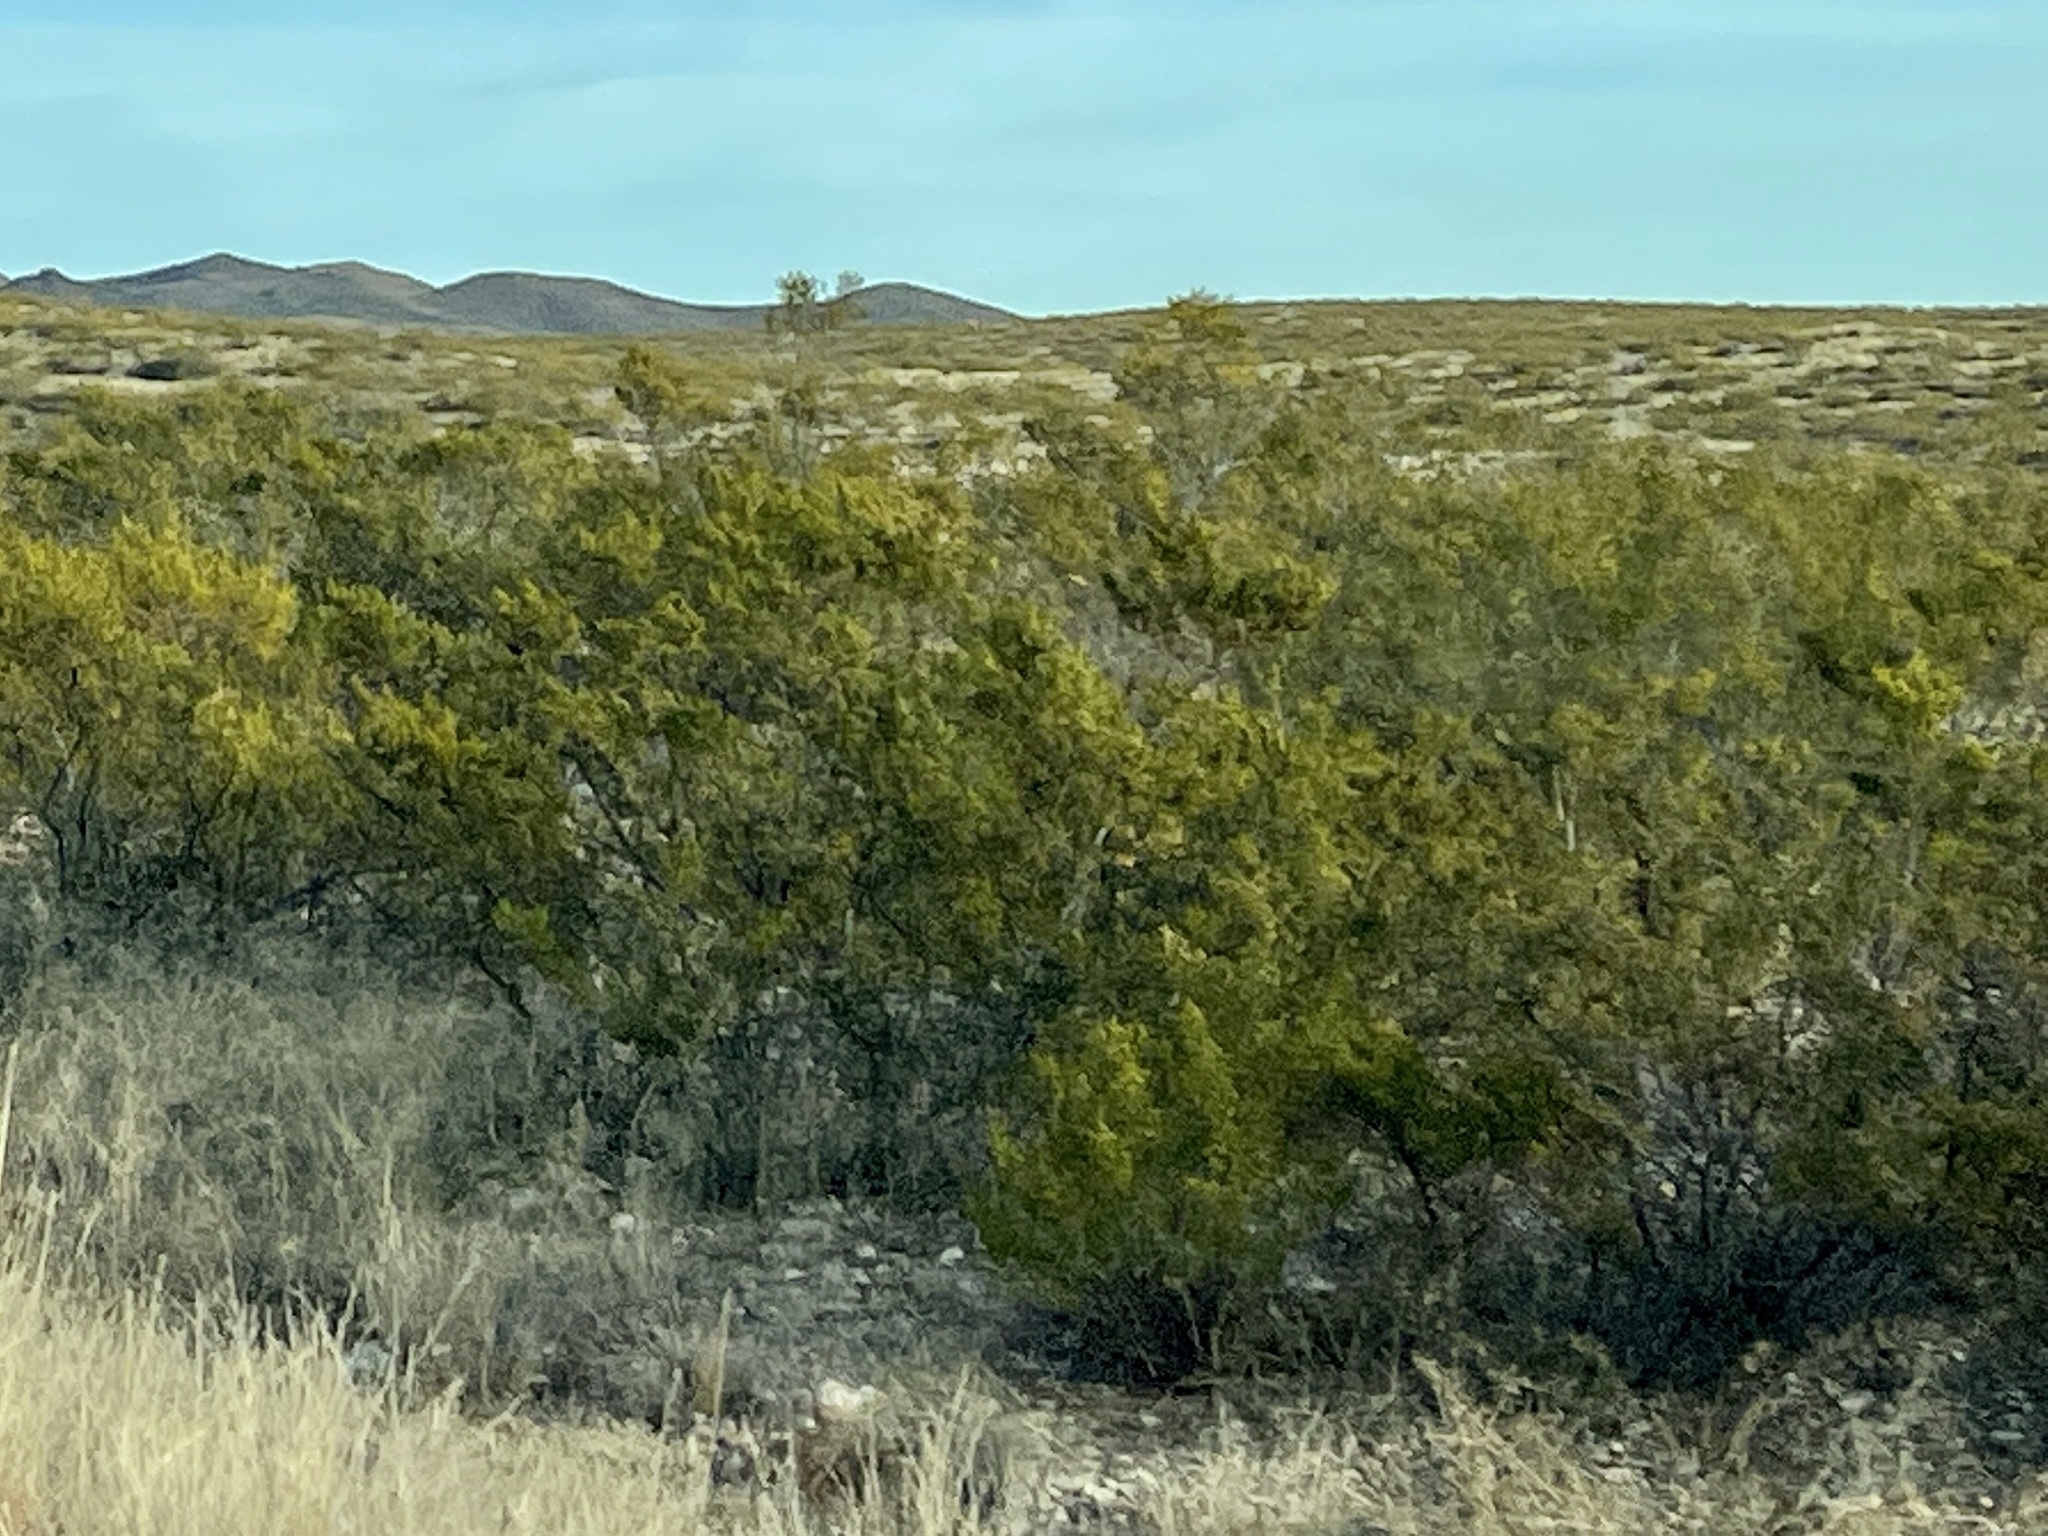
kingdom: Plantae
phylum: Tracheophyta
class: Magnoliopsida
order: Zygophyllales
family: Zygophyllaceae
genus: Larrea
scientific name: Larrea tridentata
